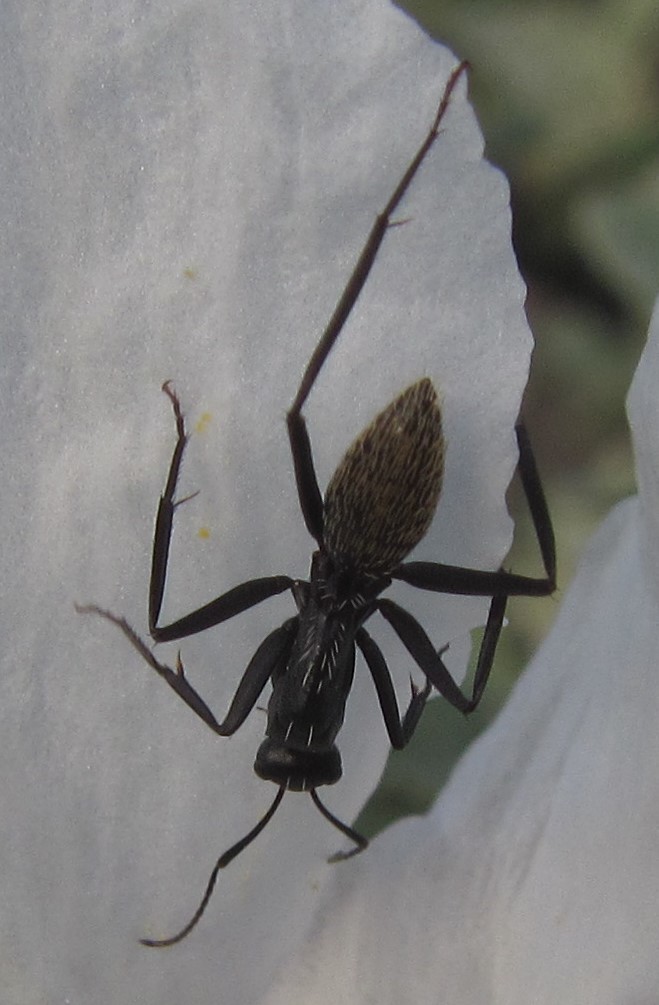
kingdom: Animalia
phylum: Arthropoda
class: Insecta
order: Hymenoptera
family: Formicidae
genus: Camponotus
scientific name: Camponotus fulvopilosus
